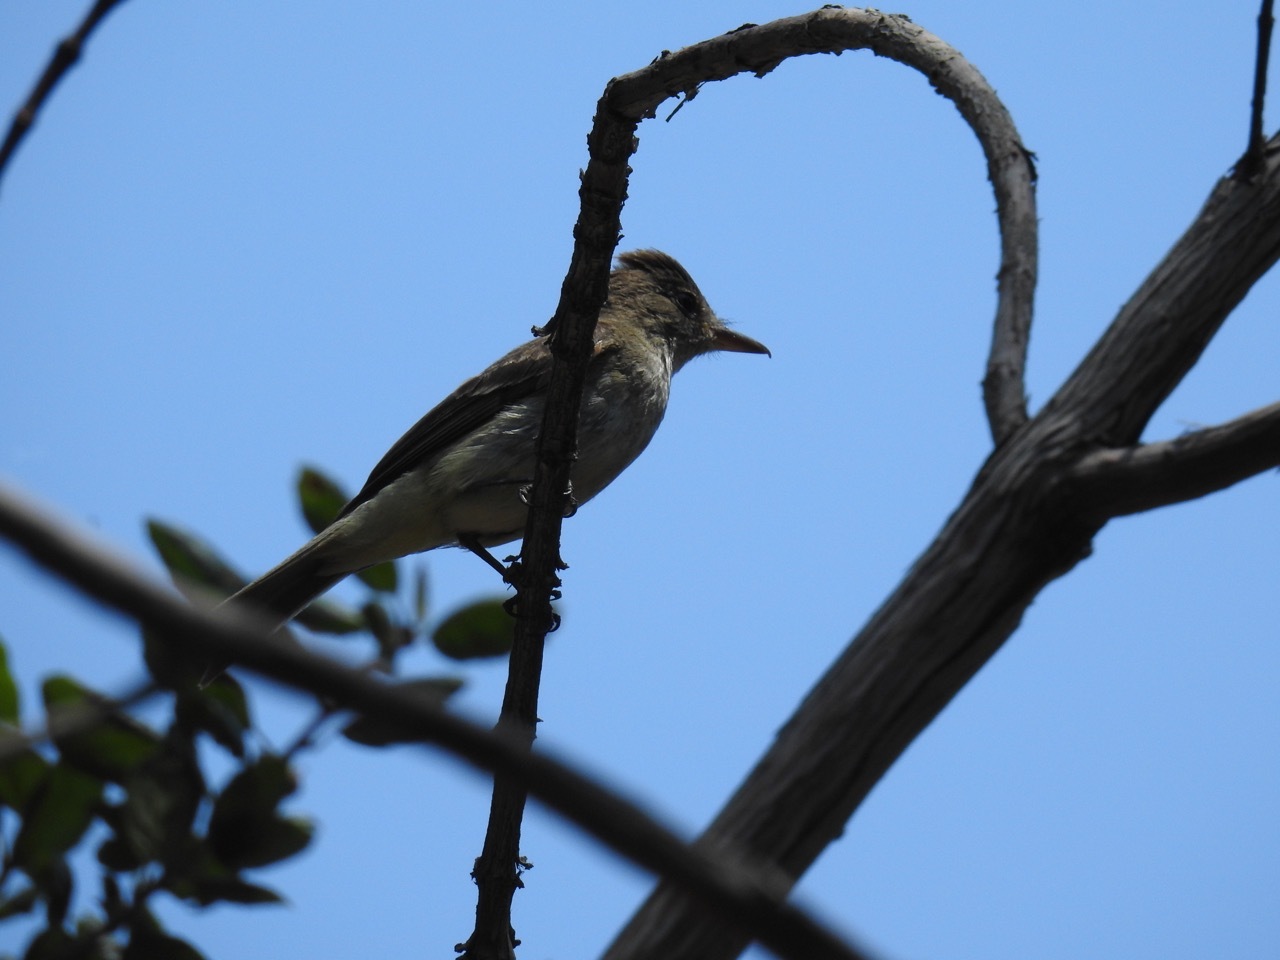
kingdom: Animalia
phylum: Chordata
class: Aves
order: Passeriformes
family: Tyrannidae
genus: Myiarchus
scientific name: Myiarchus cinerascens
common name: Ash-throated flycatcher
